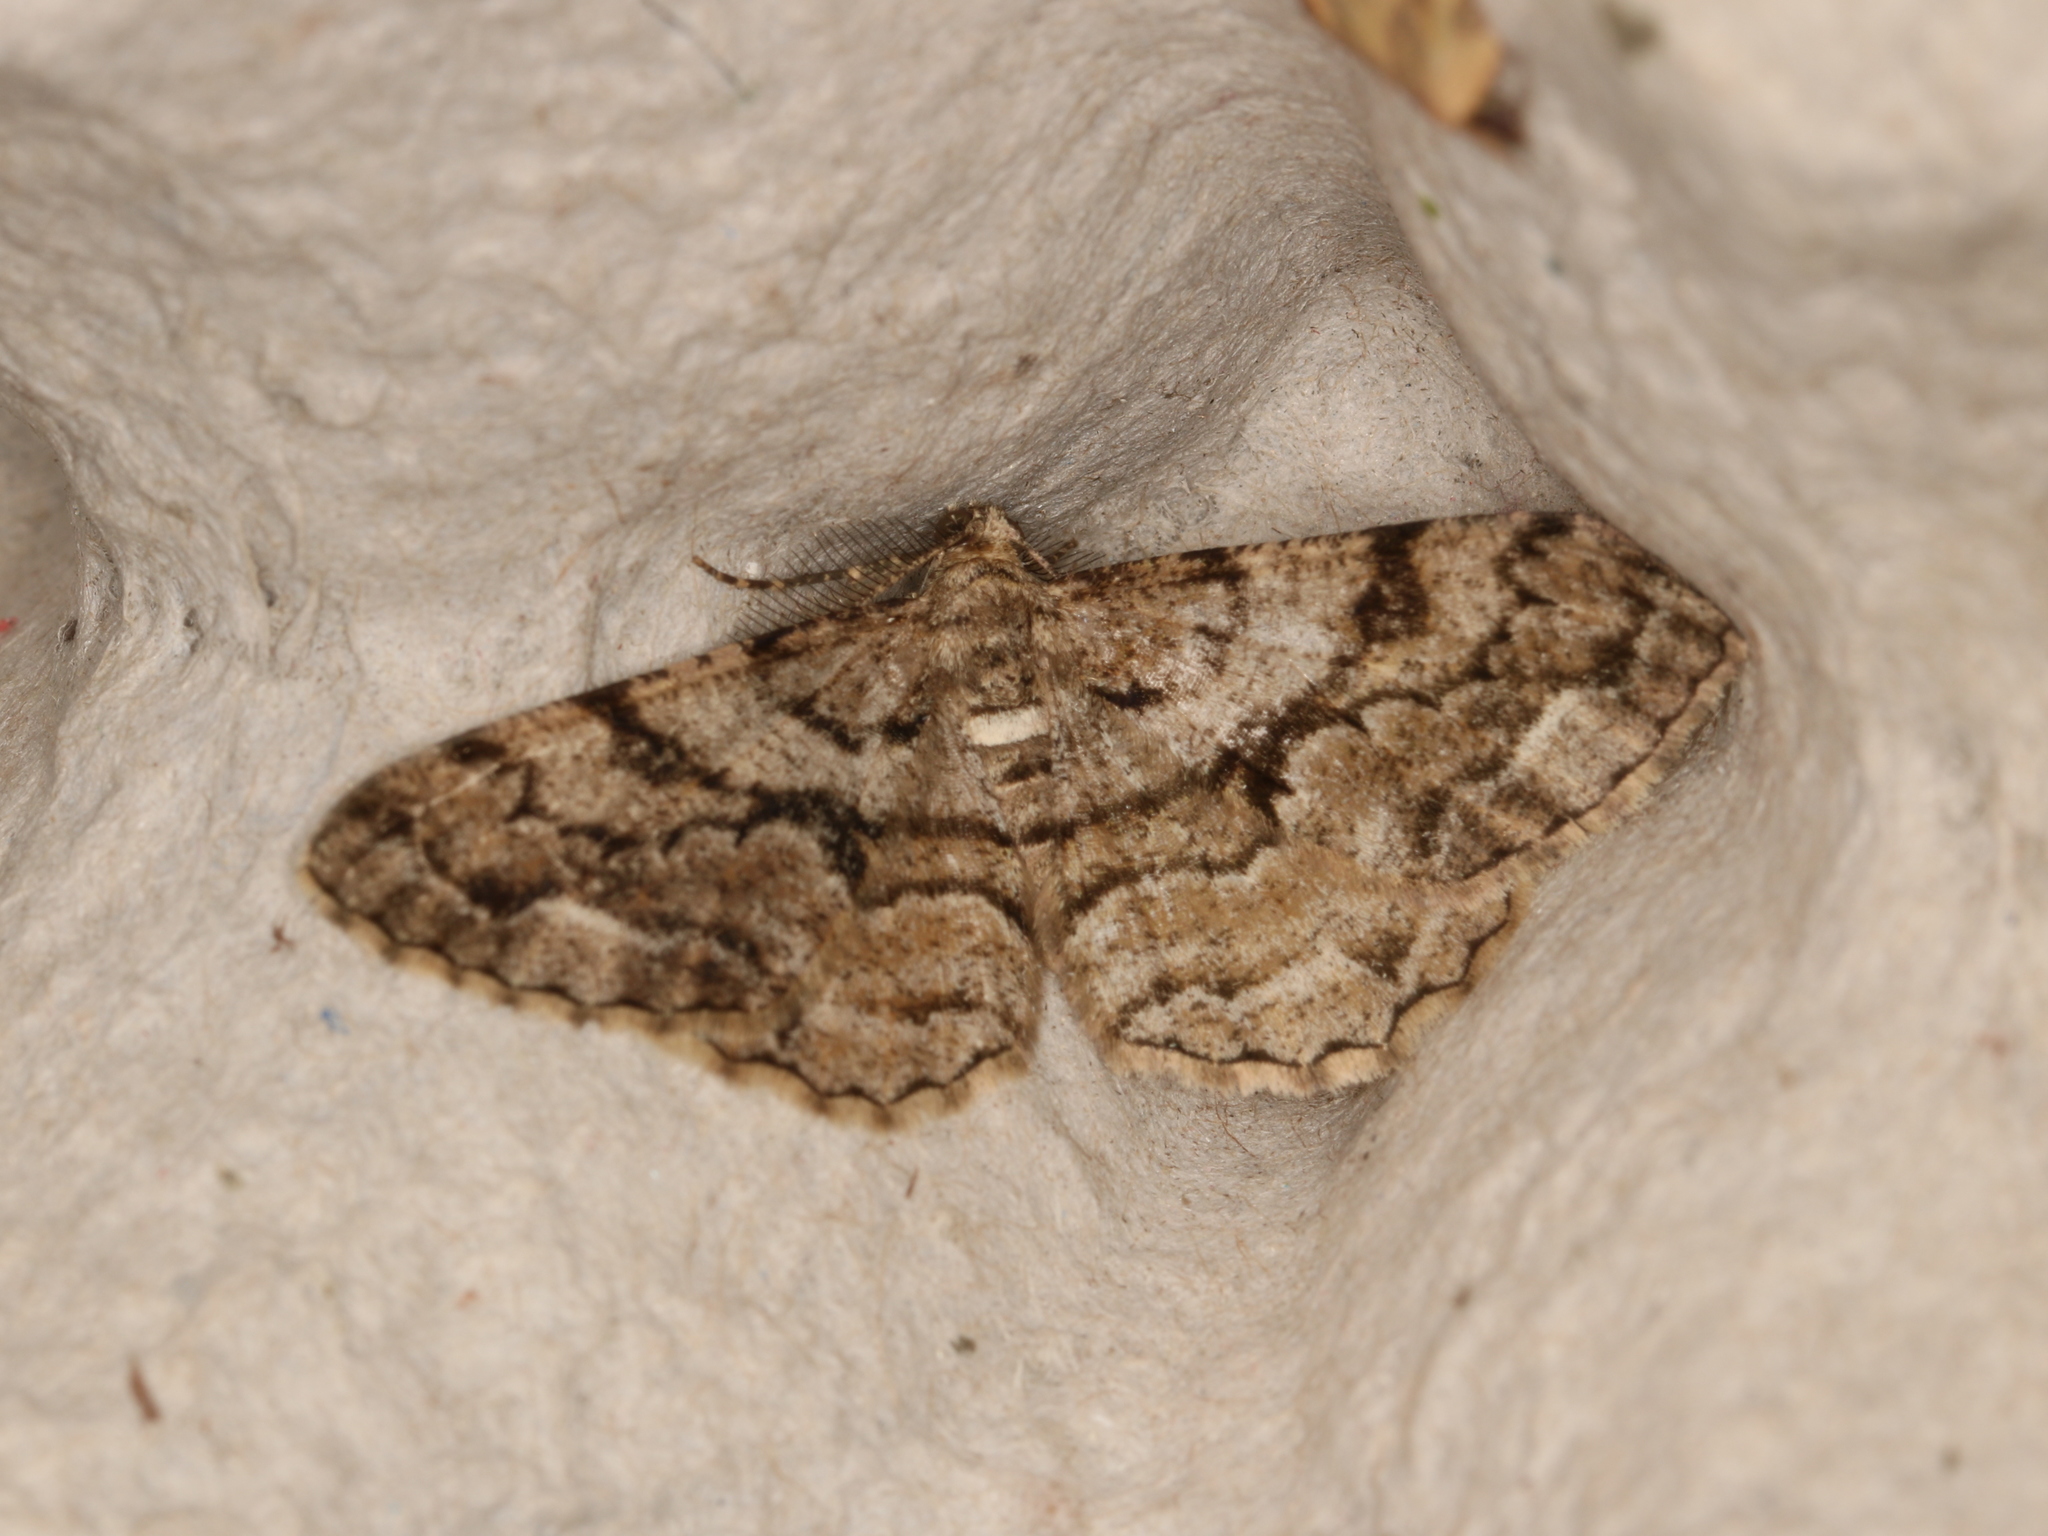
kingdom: Animalia
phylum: Arthropoda
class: Insecta
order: Lepidoptera
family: Geometridae
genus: Peribatodes
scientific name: Peribatodes secundaria
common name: Feathered beauty
